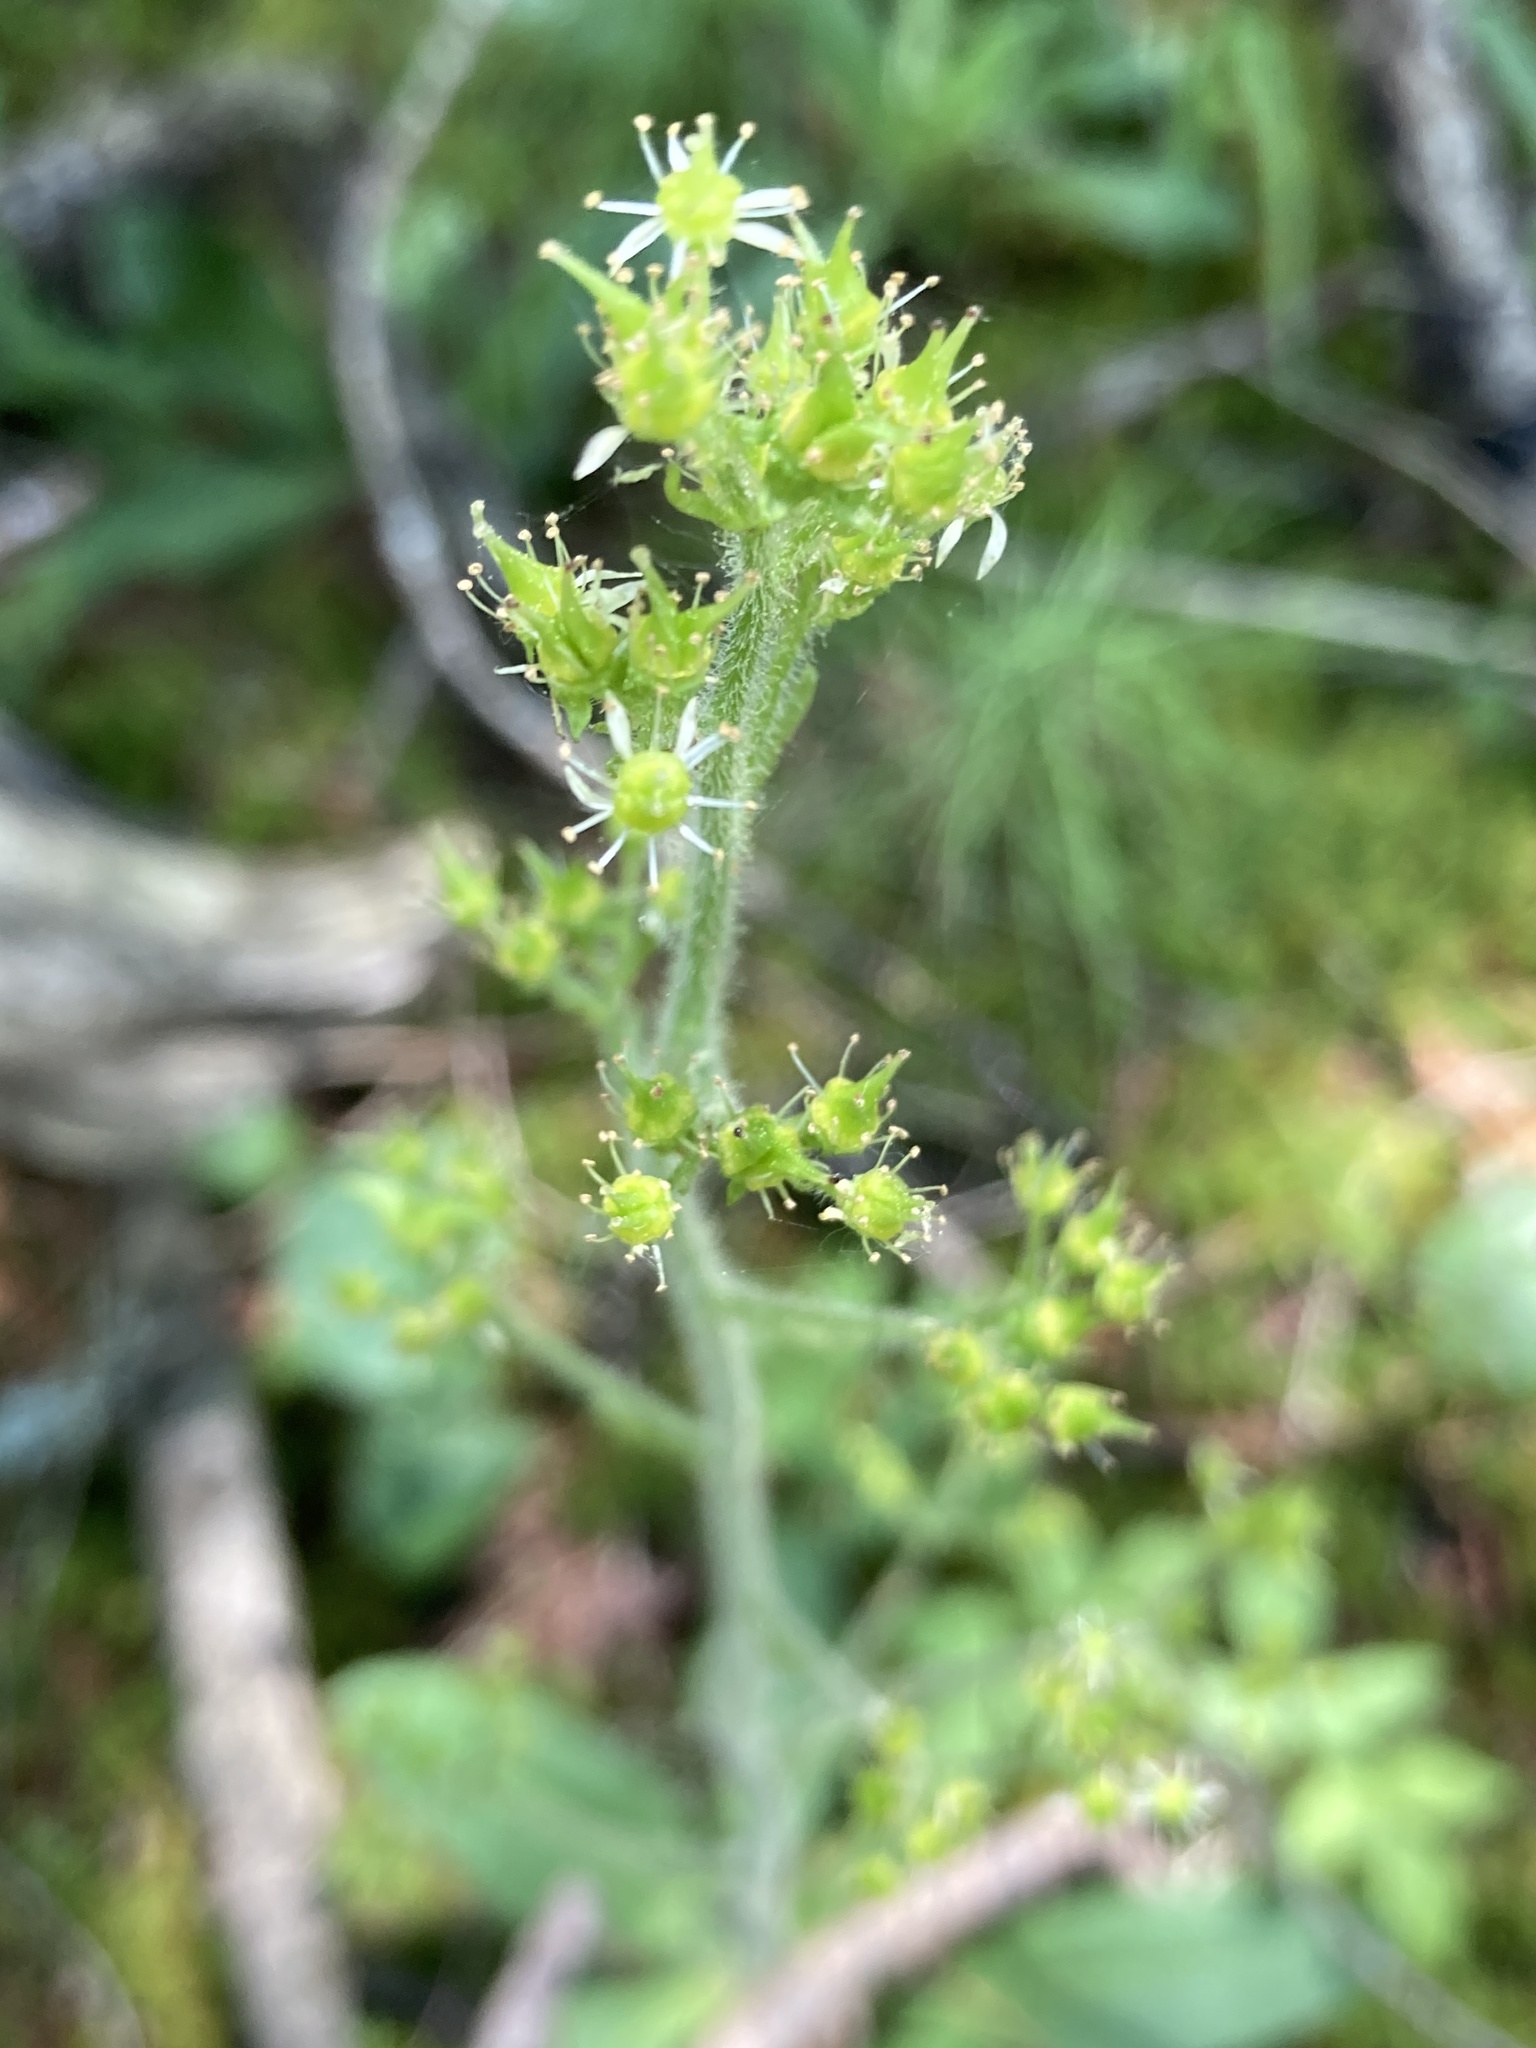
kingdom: Plantae
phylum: Tracheophyta
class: Magnoliopsida
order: Saxifragales
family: Saxifragaceae
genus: Micranthes
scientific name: Micranthes pensylvanica
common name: Marsh saxifrage
